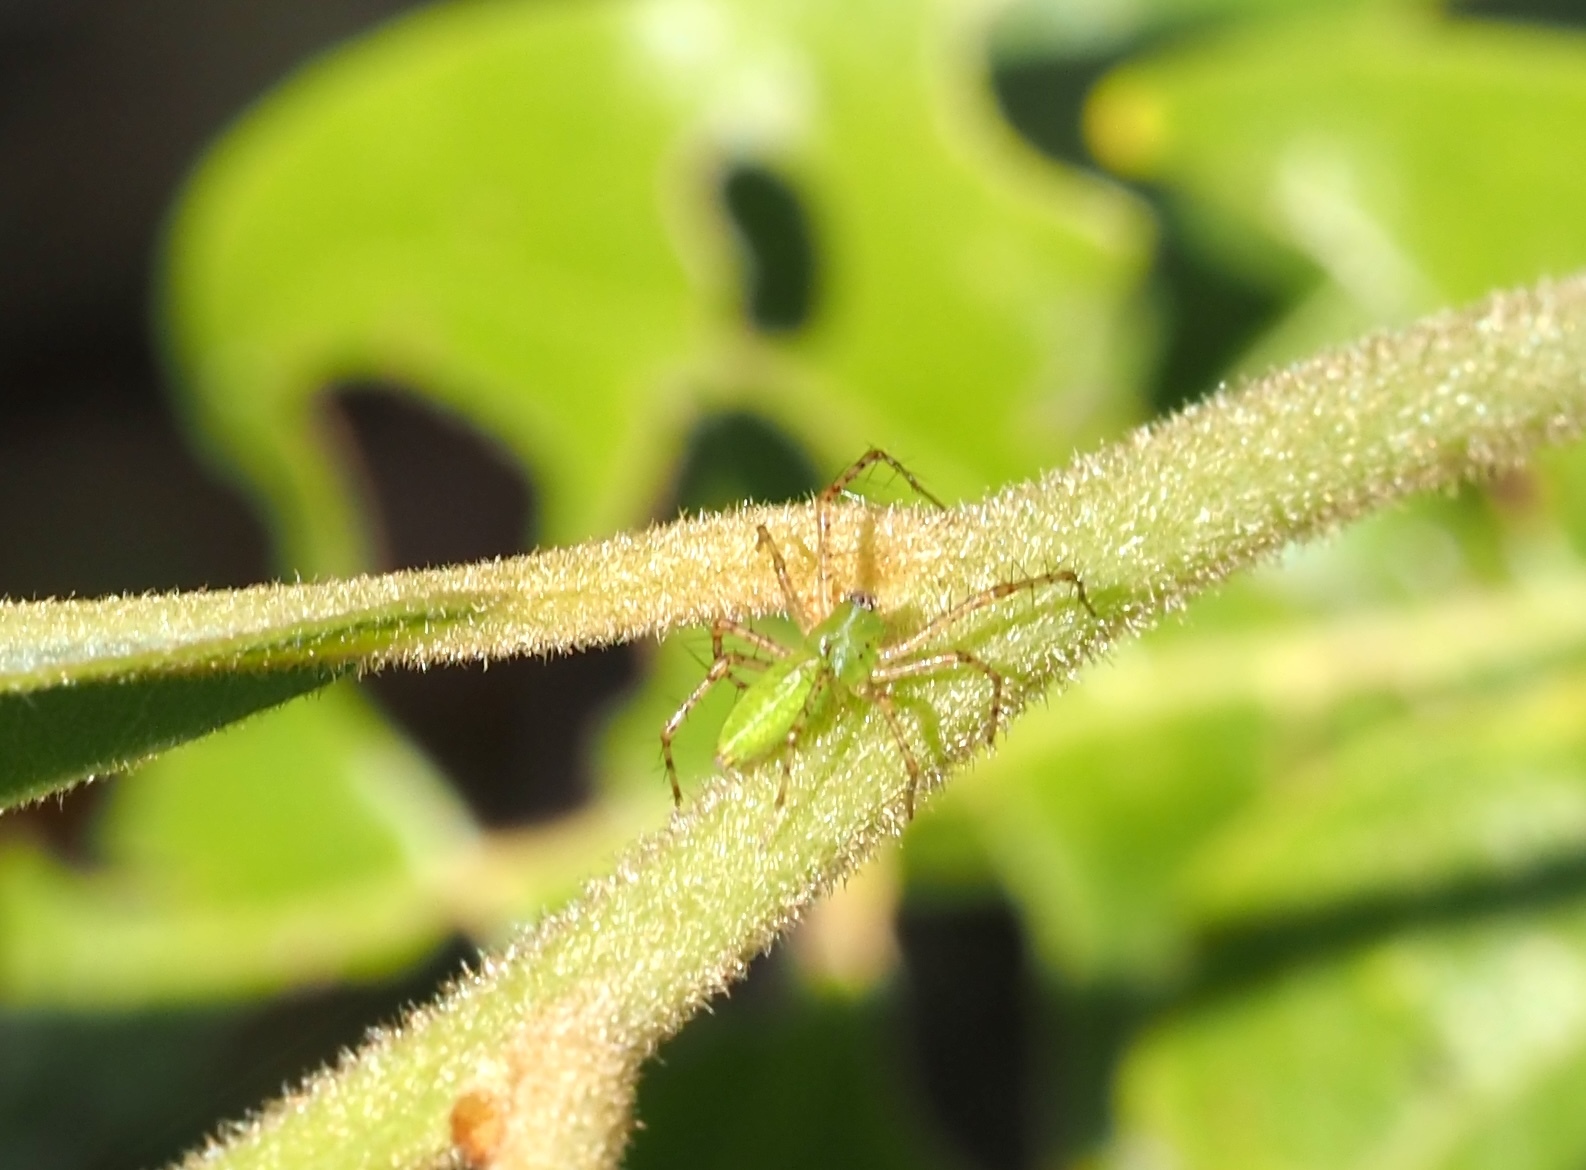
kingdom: Animalia
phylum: Arthropoda
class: Arachnida
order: Araneae
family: Oxyopidae
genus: Peucetia
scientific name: Peucetia viridans
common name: Lynx spiders
